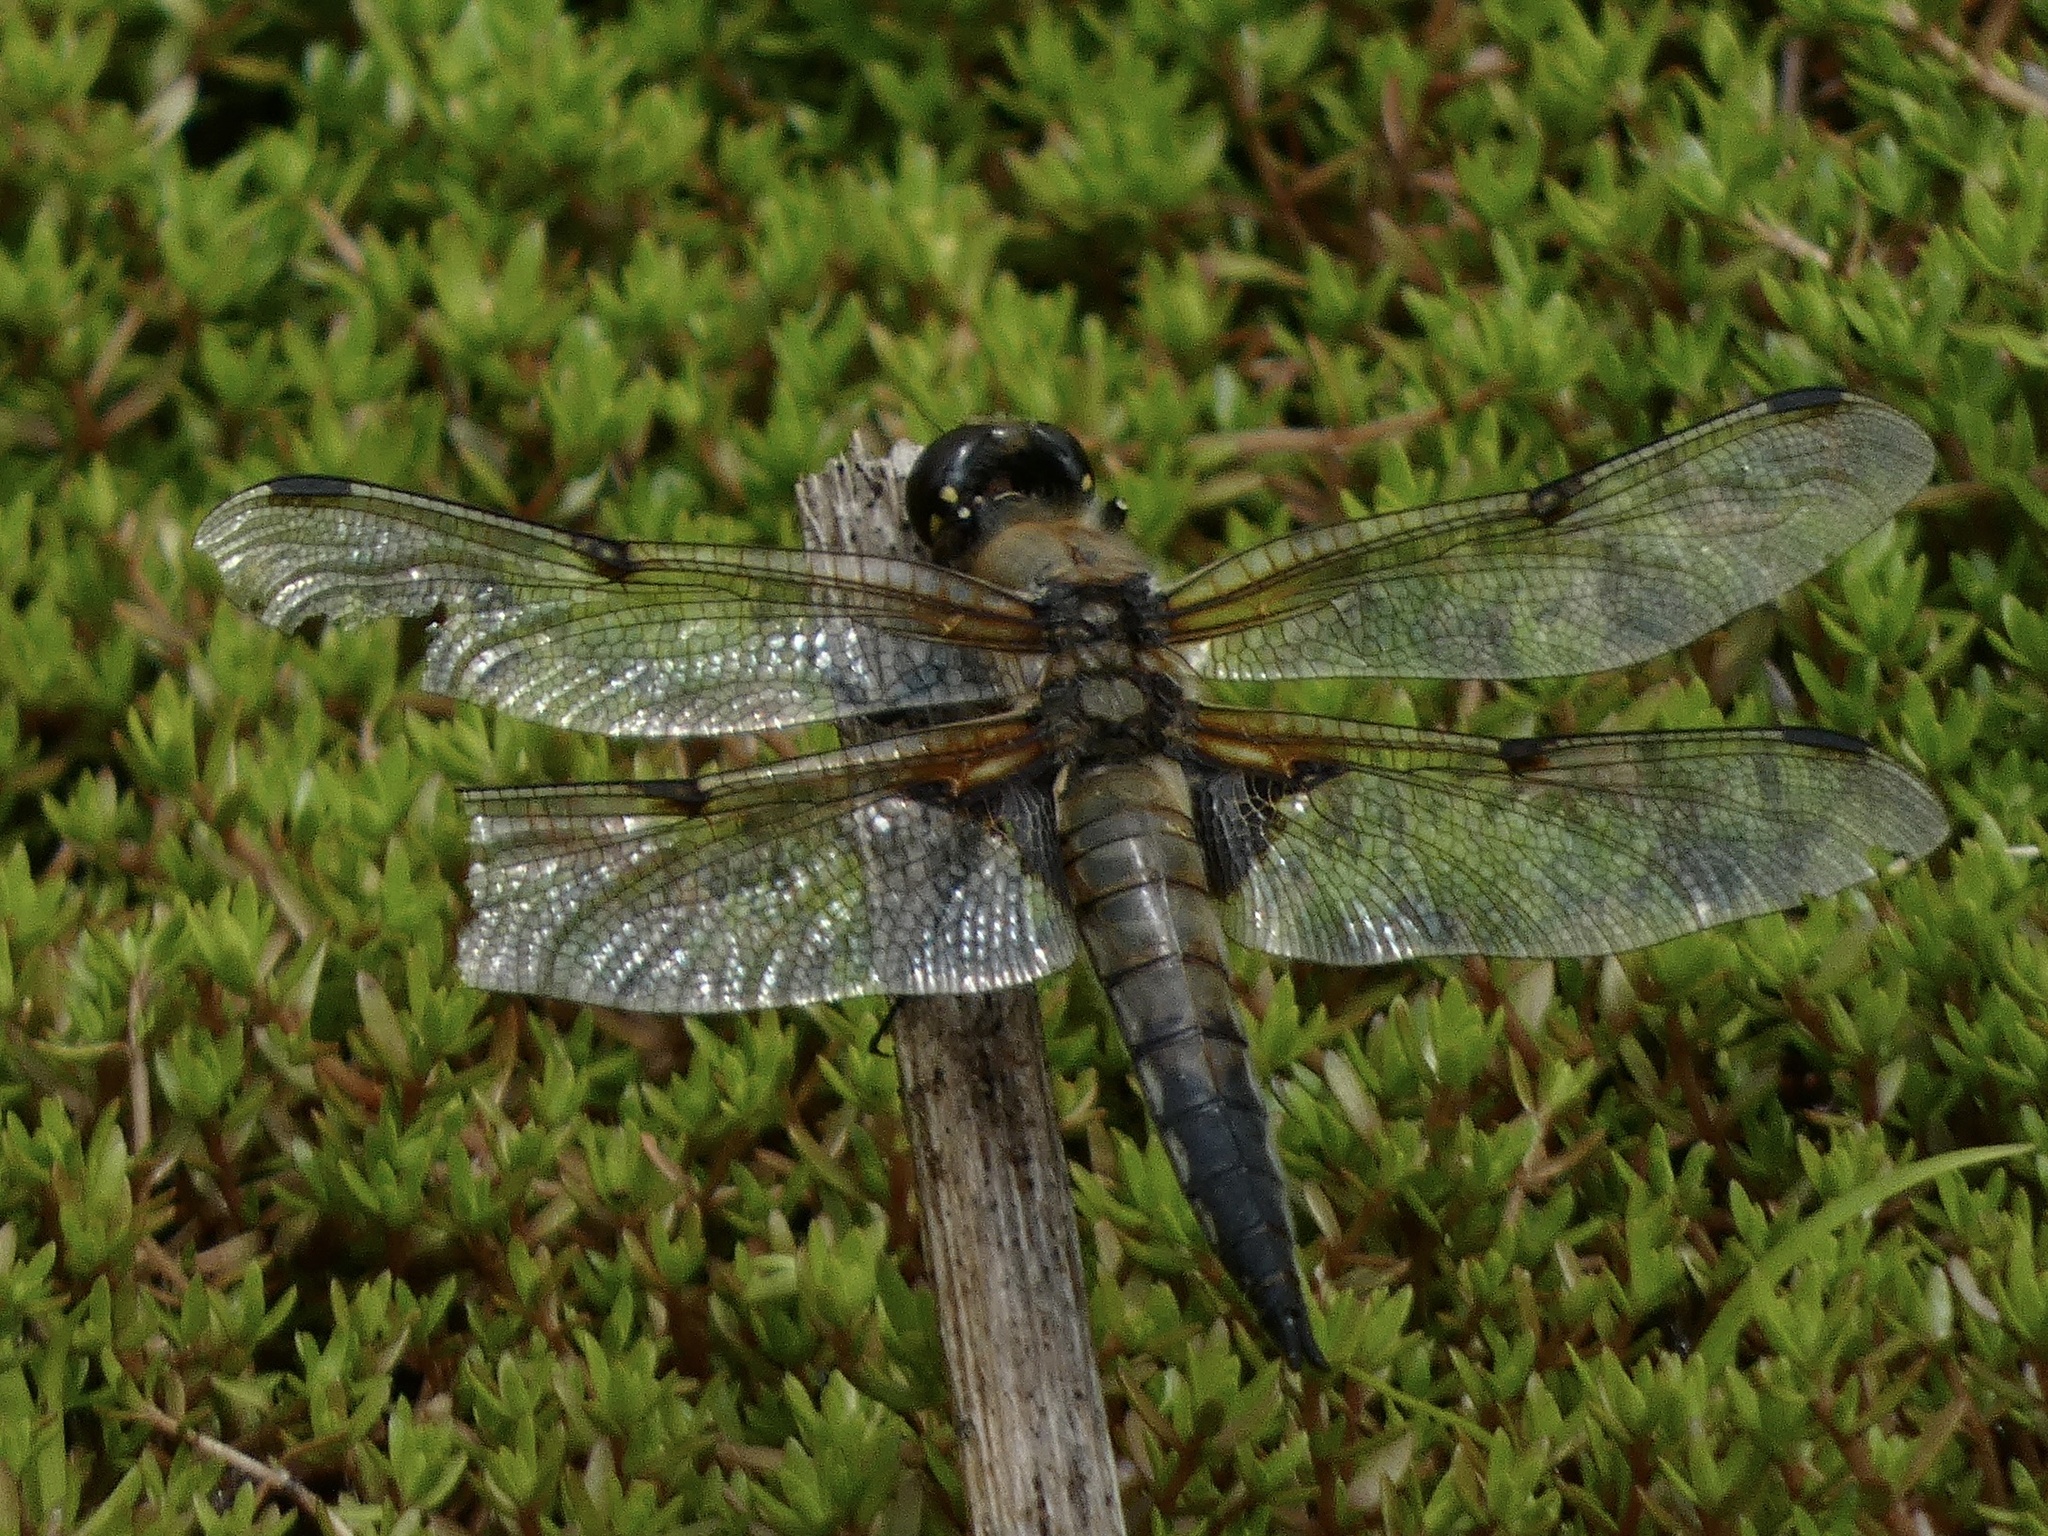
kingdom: Animalia
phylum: Arthropoda
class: Insecta
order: Odonata
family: Libellulidae
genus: Libellula
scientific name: Libellula quadrimaculata
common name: Four-spotted chaser
